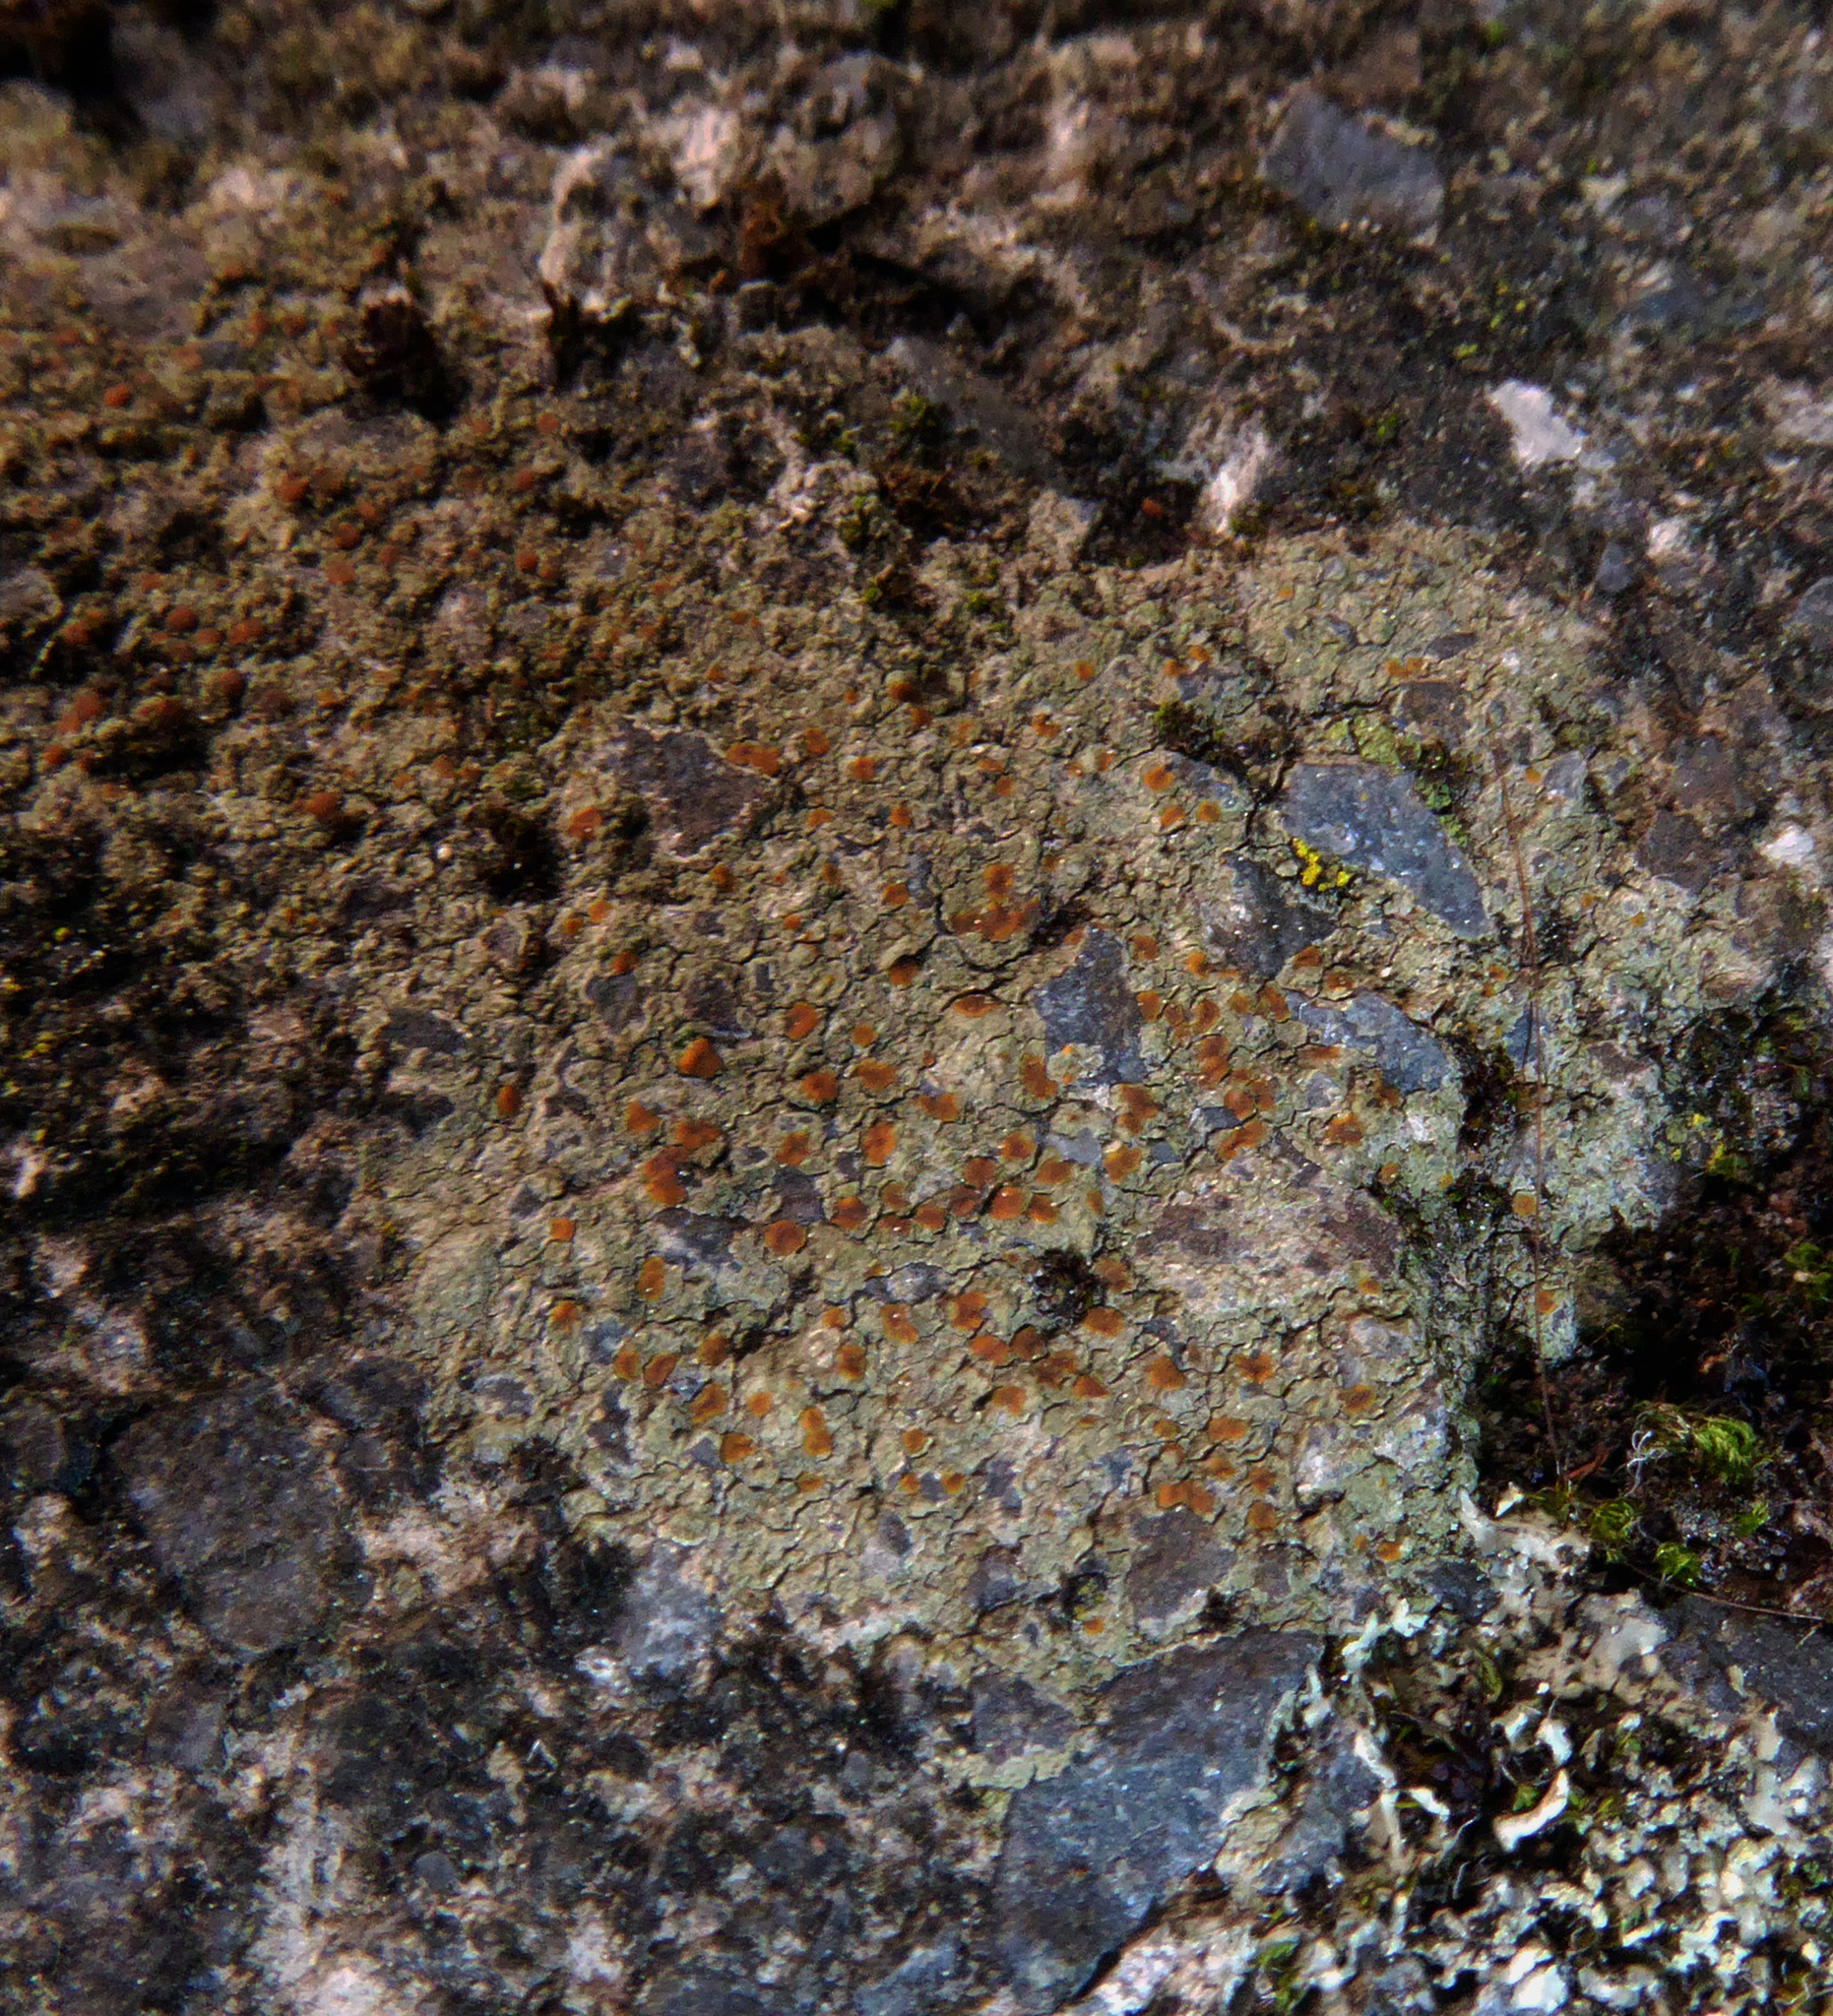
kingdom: Fungi
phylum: Ascomycota
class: Lecanoromycetes
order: Lecanorales
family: Psoraceae
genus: Protoblastenia
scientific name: Protoblastenia rupestris
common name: Chewing gum lichen
